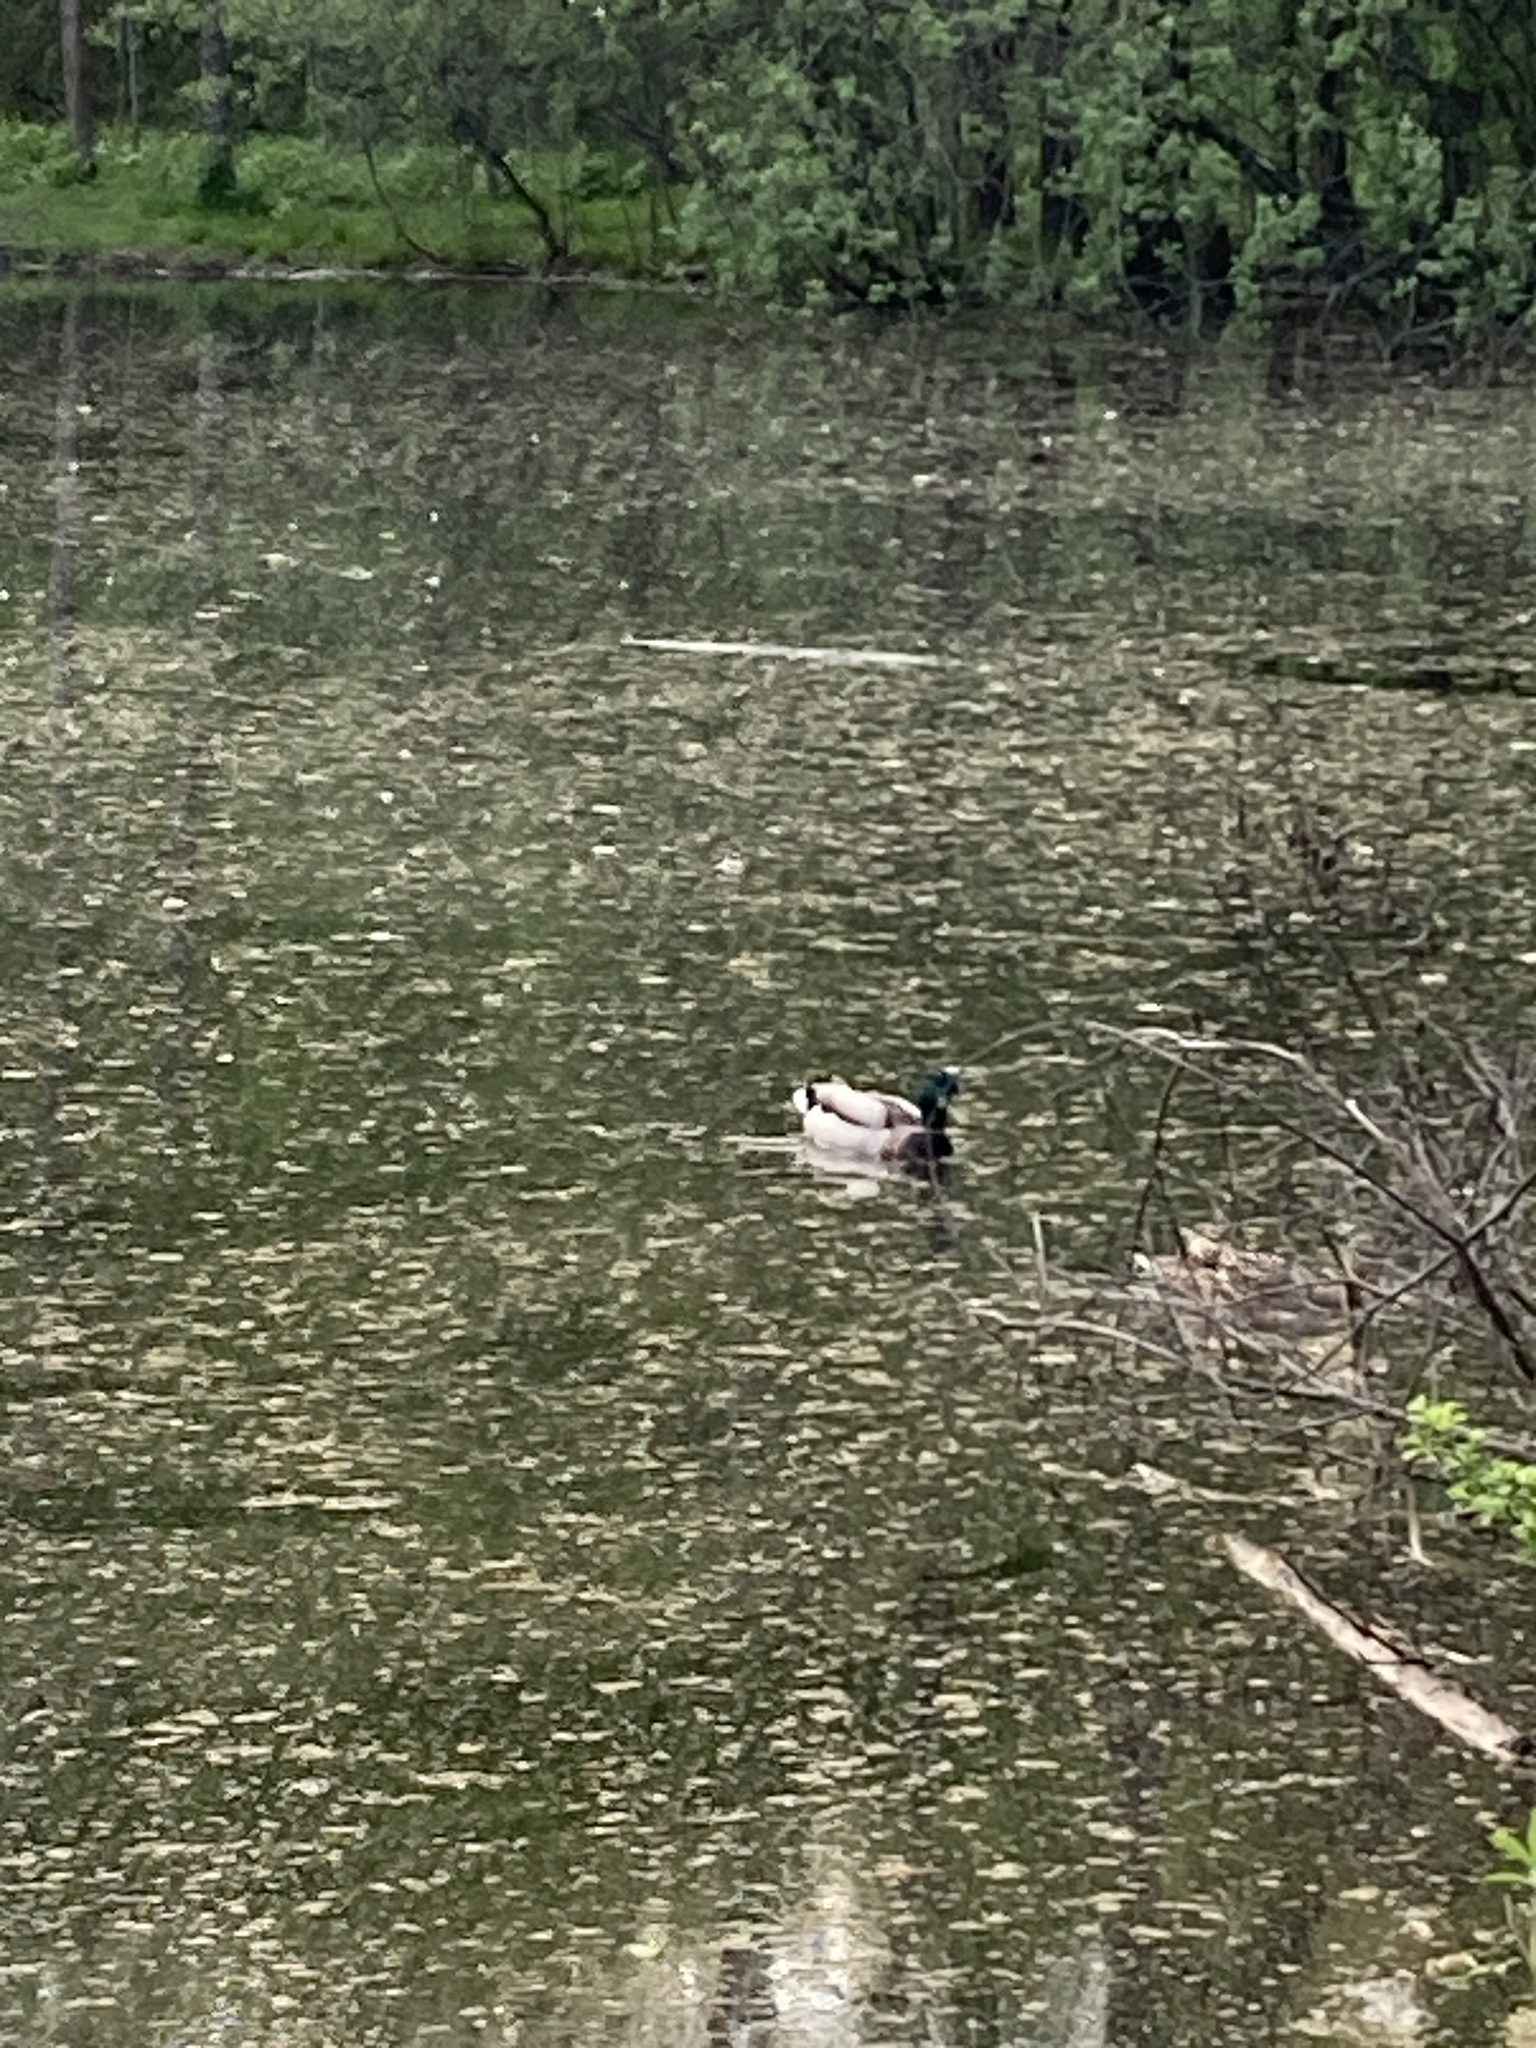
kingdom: Animalia
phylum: Chordata
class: Aves
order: Anseriformes
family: Anatidae
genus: Anas
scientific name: Anas platyrhynchos
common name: Mallard
